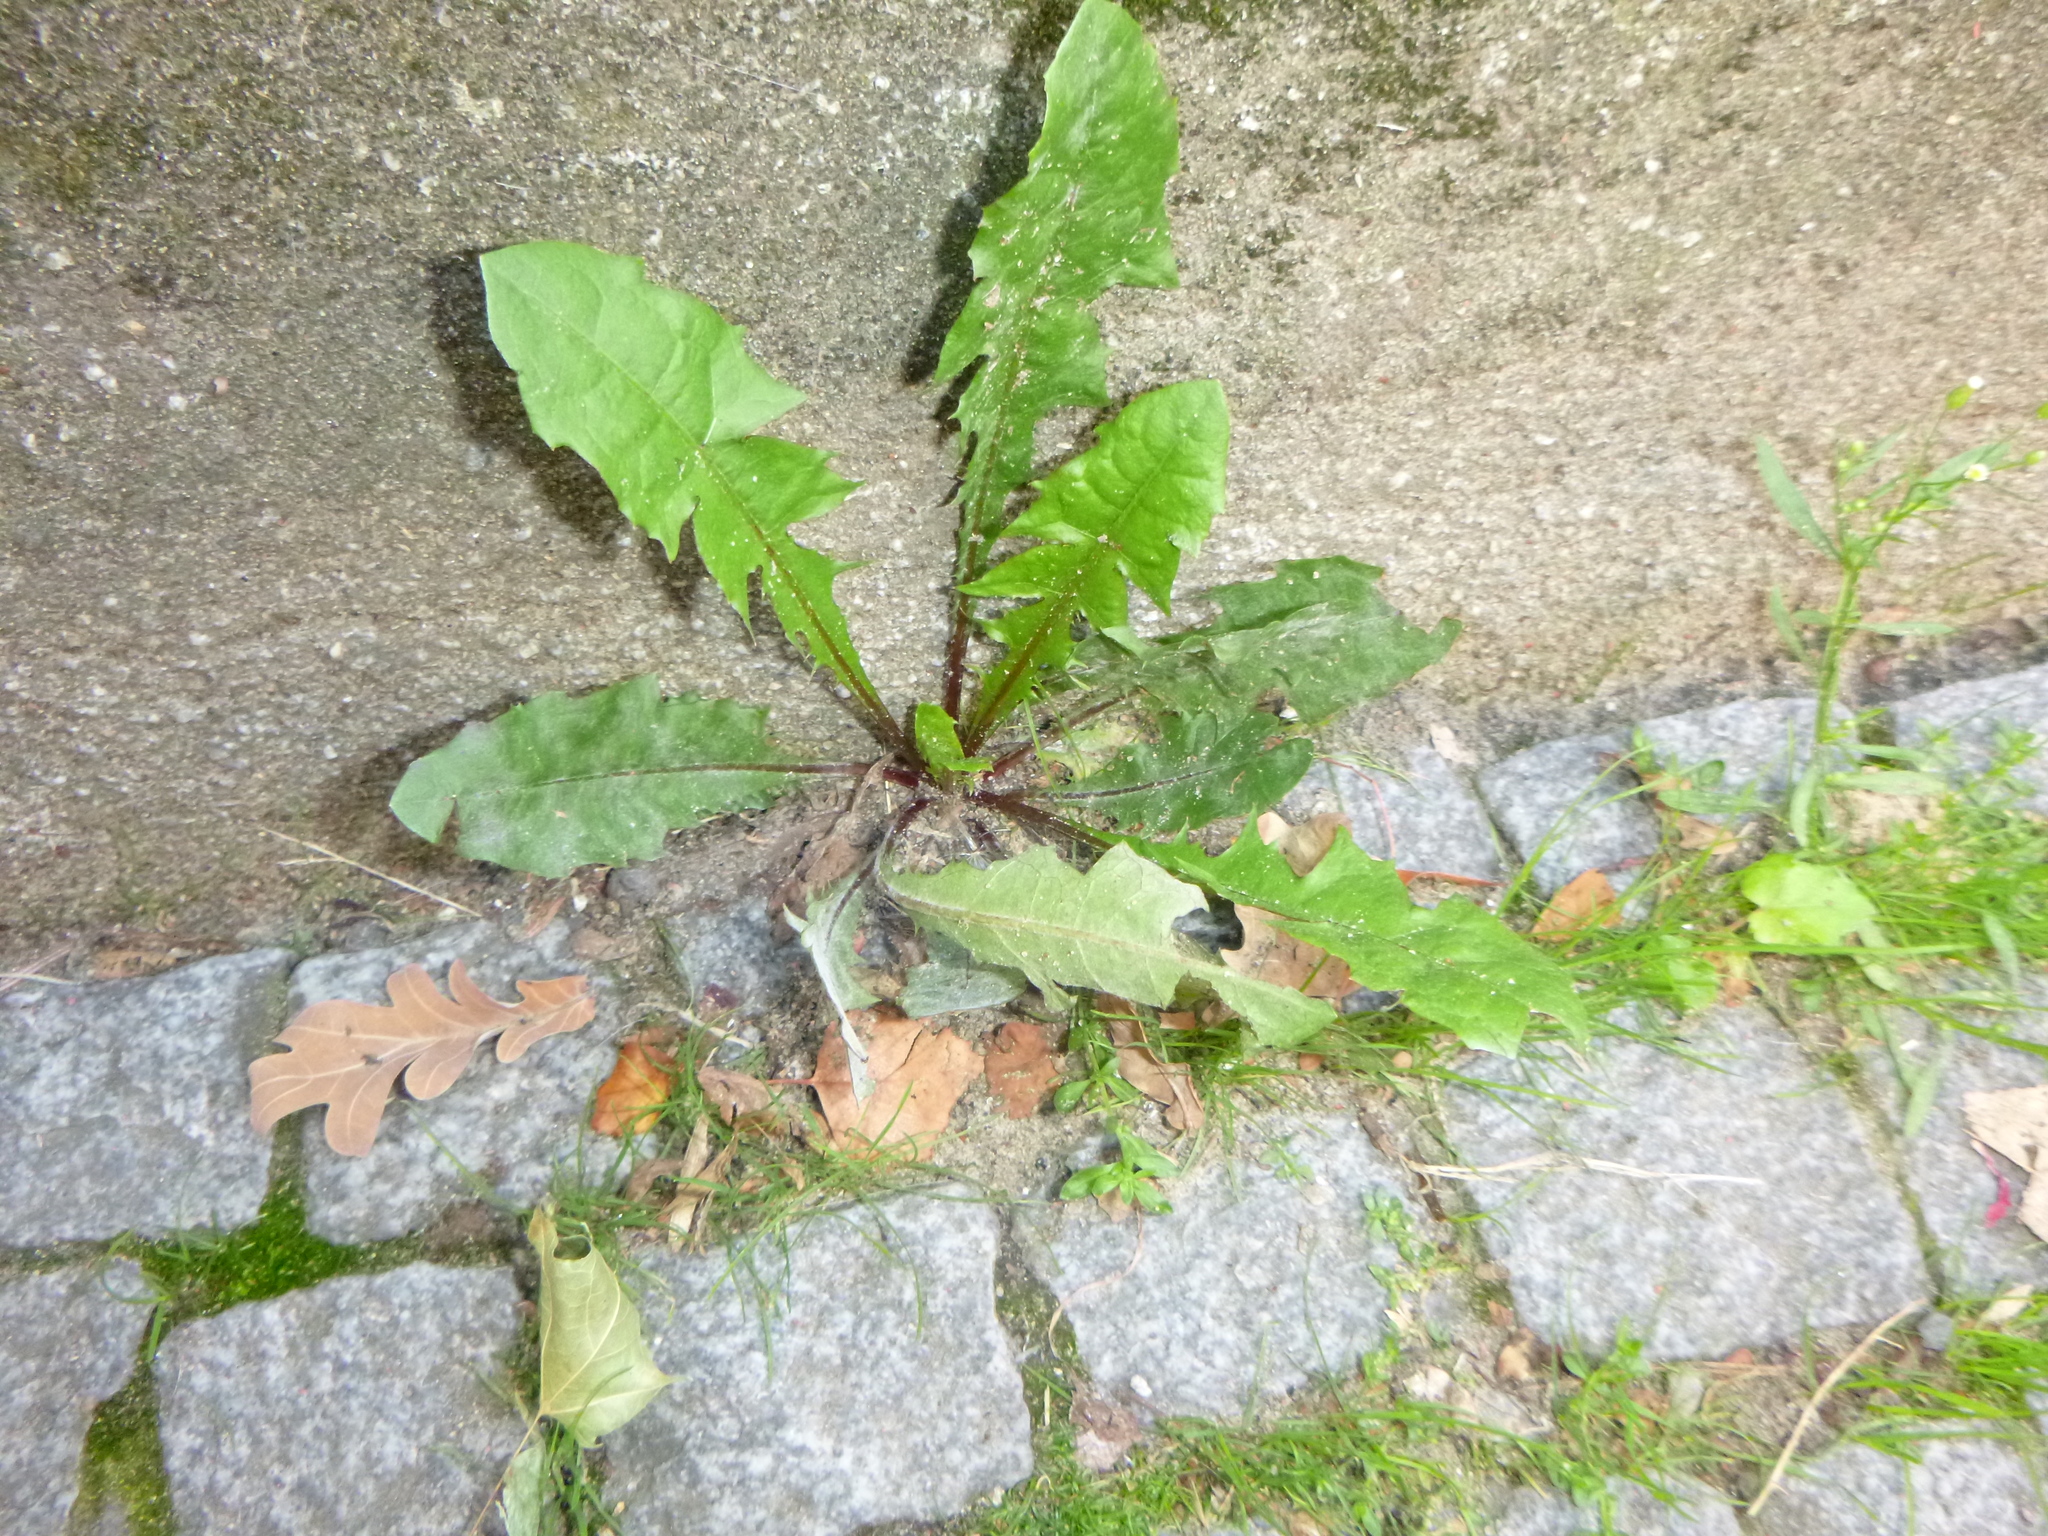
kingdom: Plantae
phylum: Tracheophyta
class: Magnoliopsida
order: Asterales
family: Asteraceae
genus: Taraxacum
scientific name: Taraxacum officinale
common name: Common dandelion
